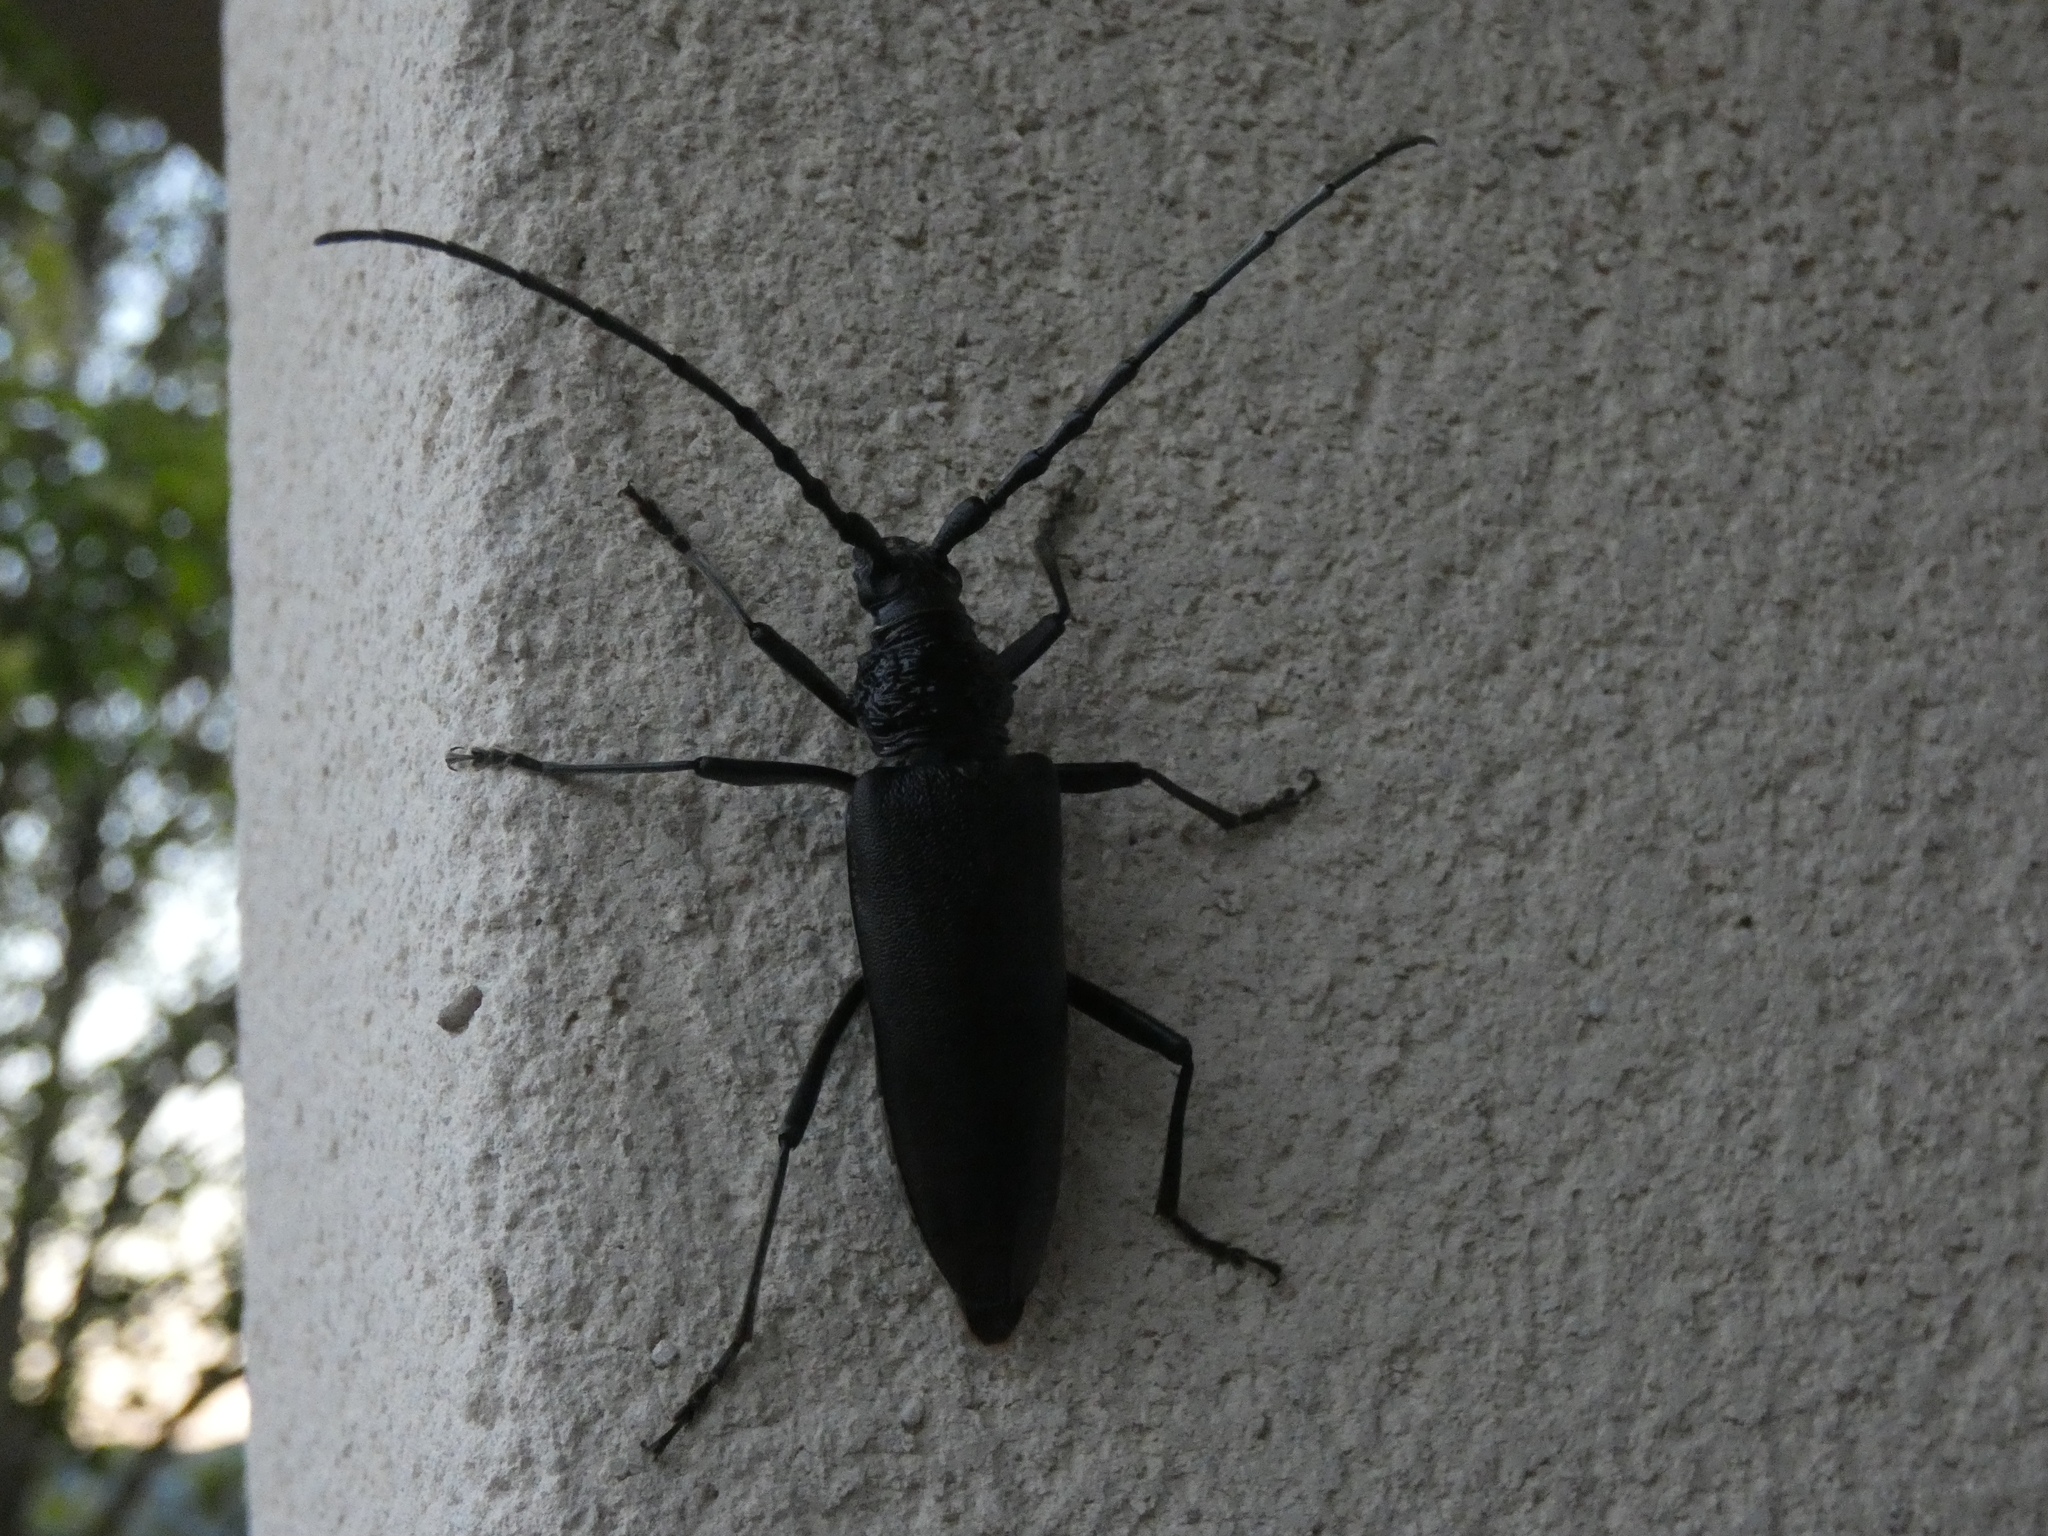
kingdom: Animalia
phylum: Arthropoda
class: Insecta
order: Coleoptera
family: Cerambycidae
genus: Cerambyx
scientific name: Cerambyx cerdo
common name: Cerambyx longicorn
